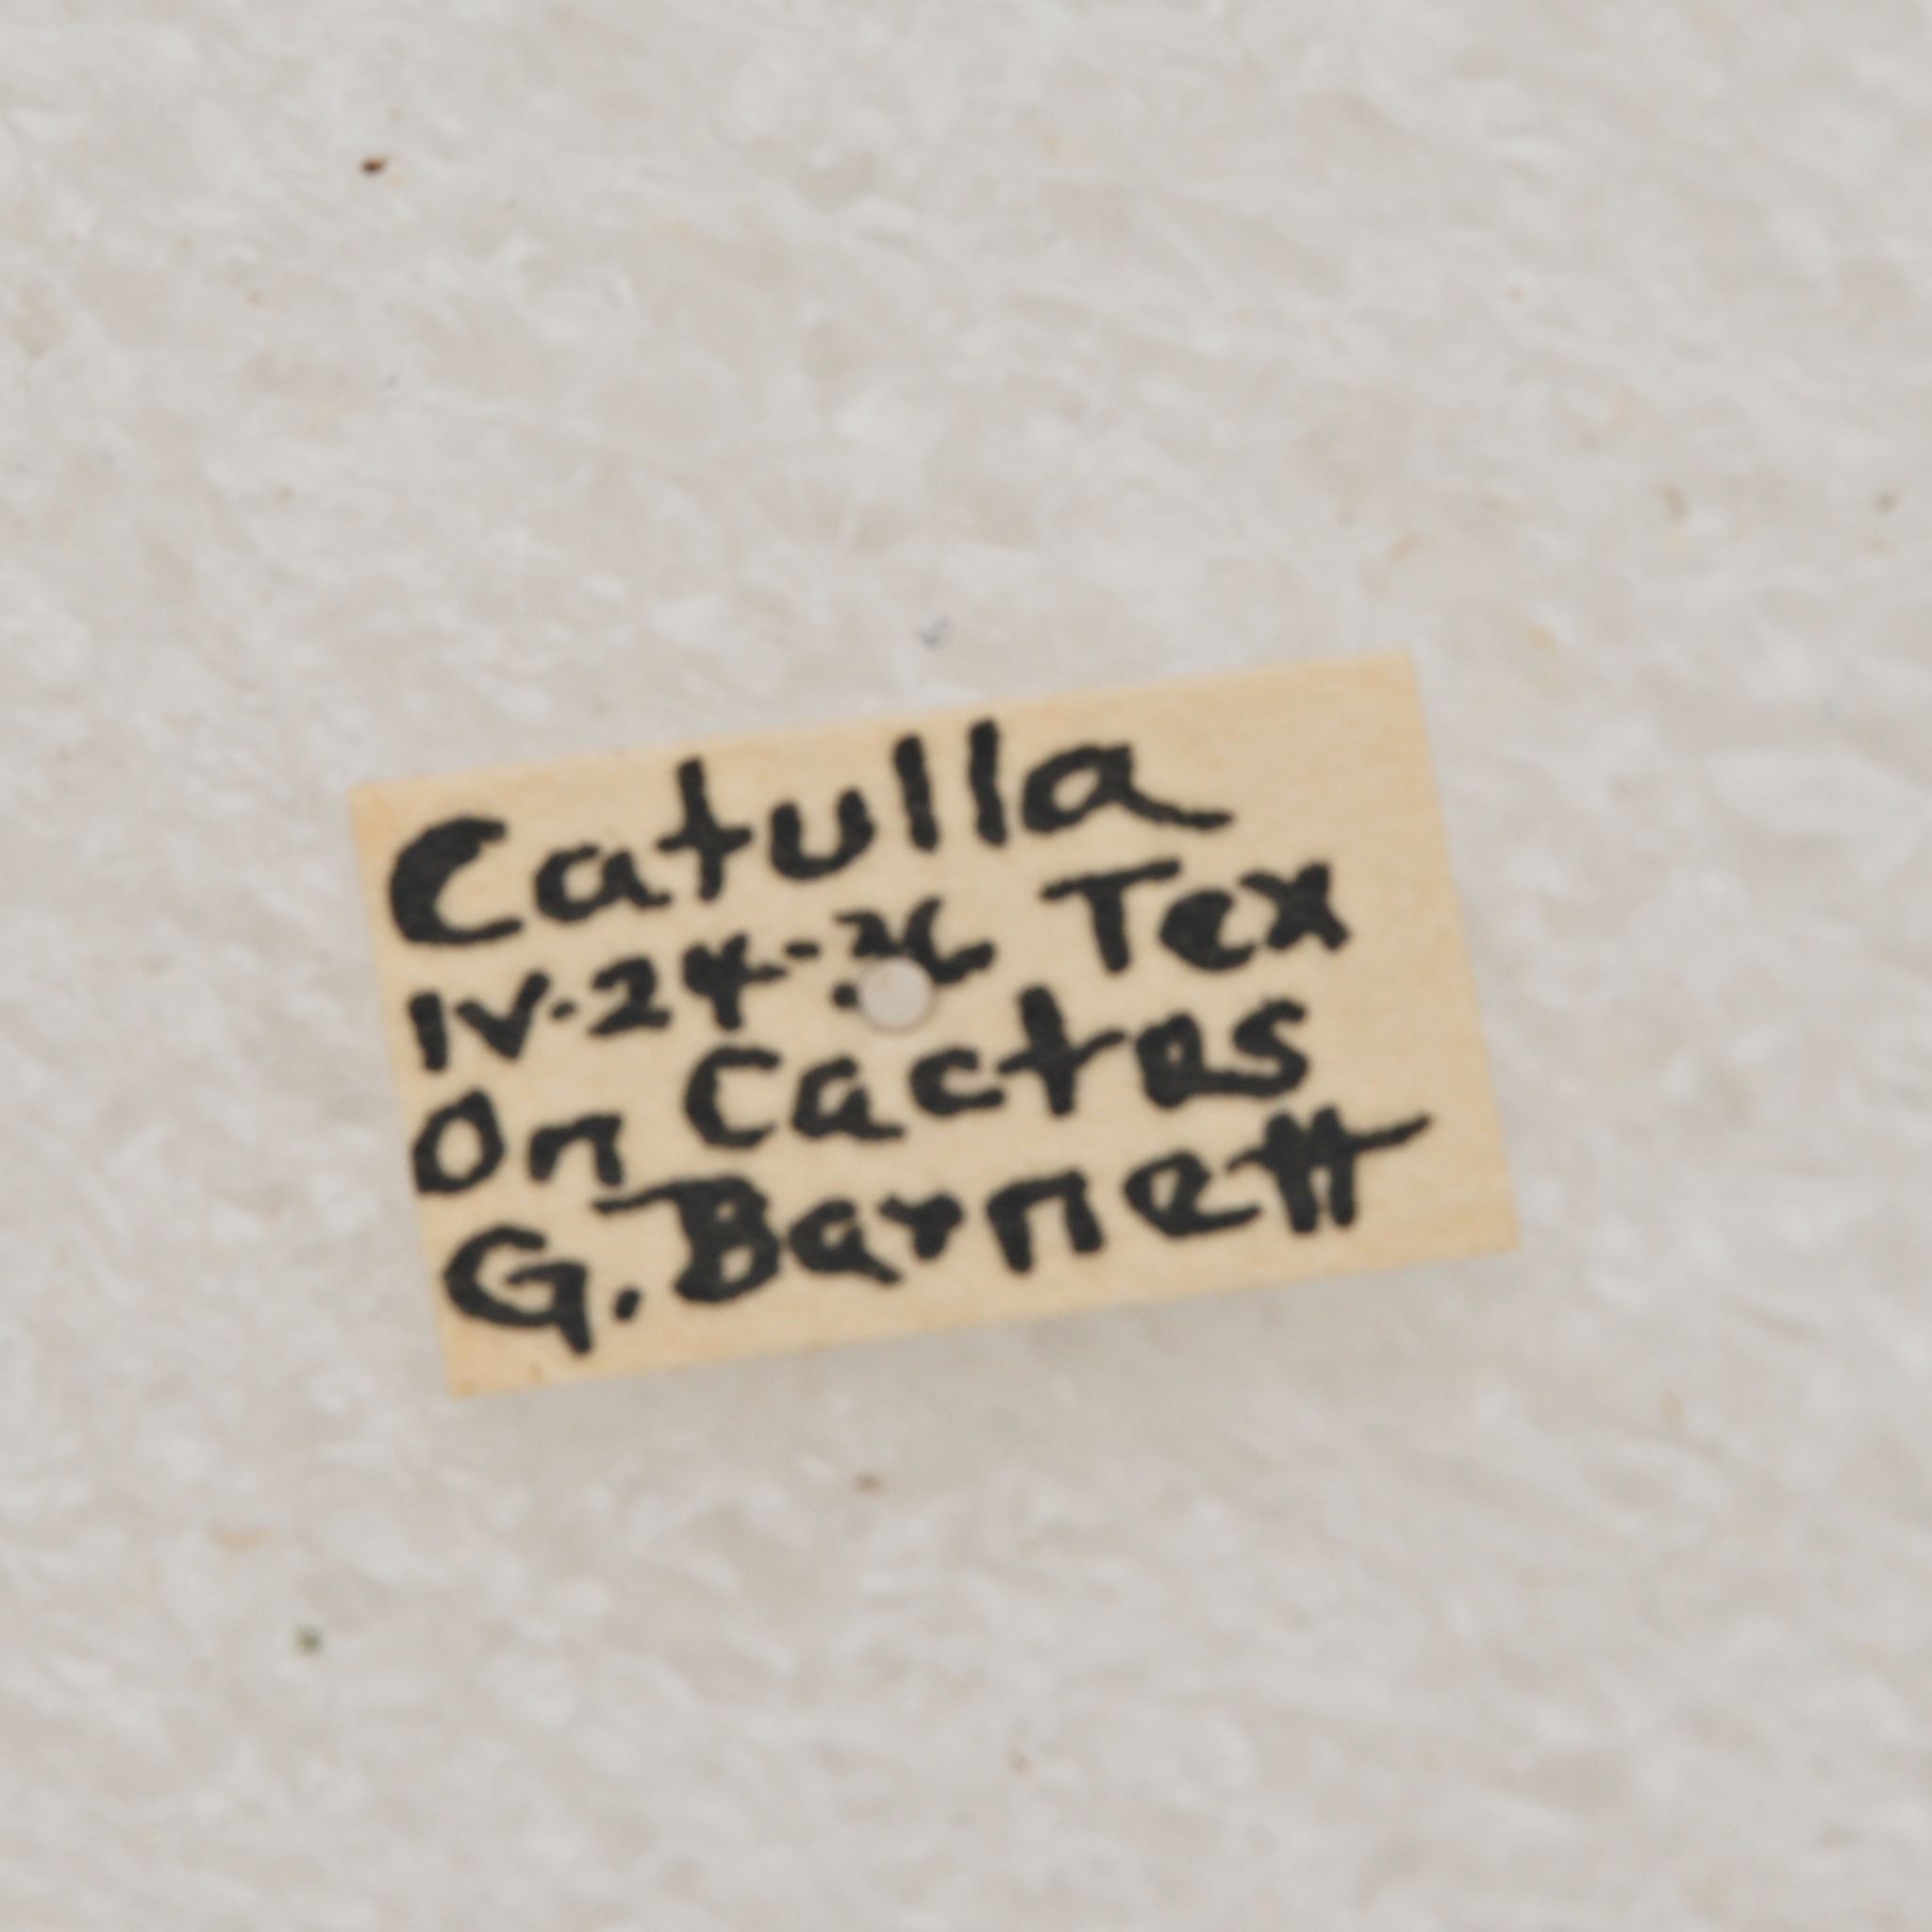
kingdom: Animalia
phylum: Arthropoda
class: Insecta
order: Coleoptera
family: Cerambycidae
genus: Parmenosoma
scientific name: Parmenosoma griseum
